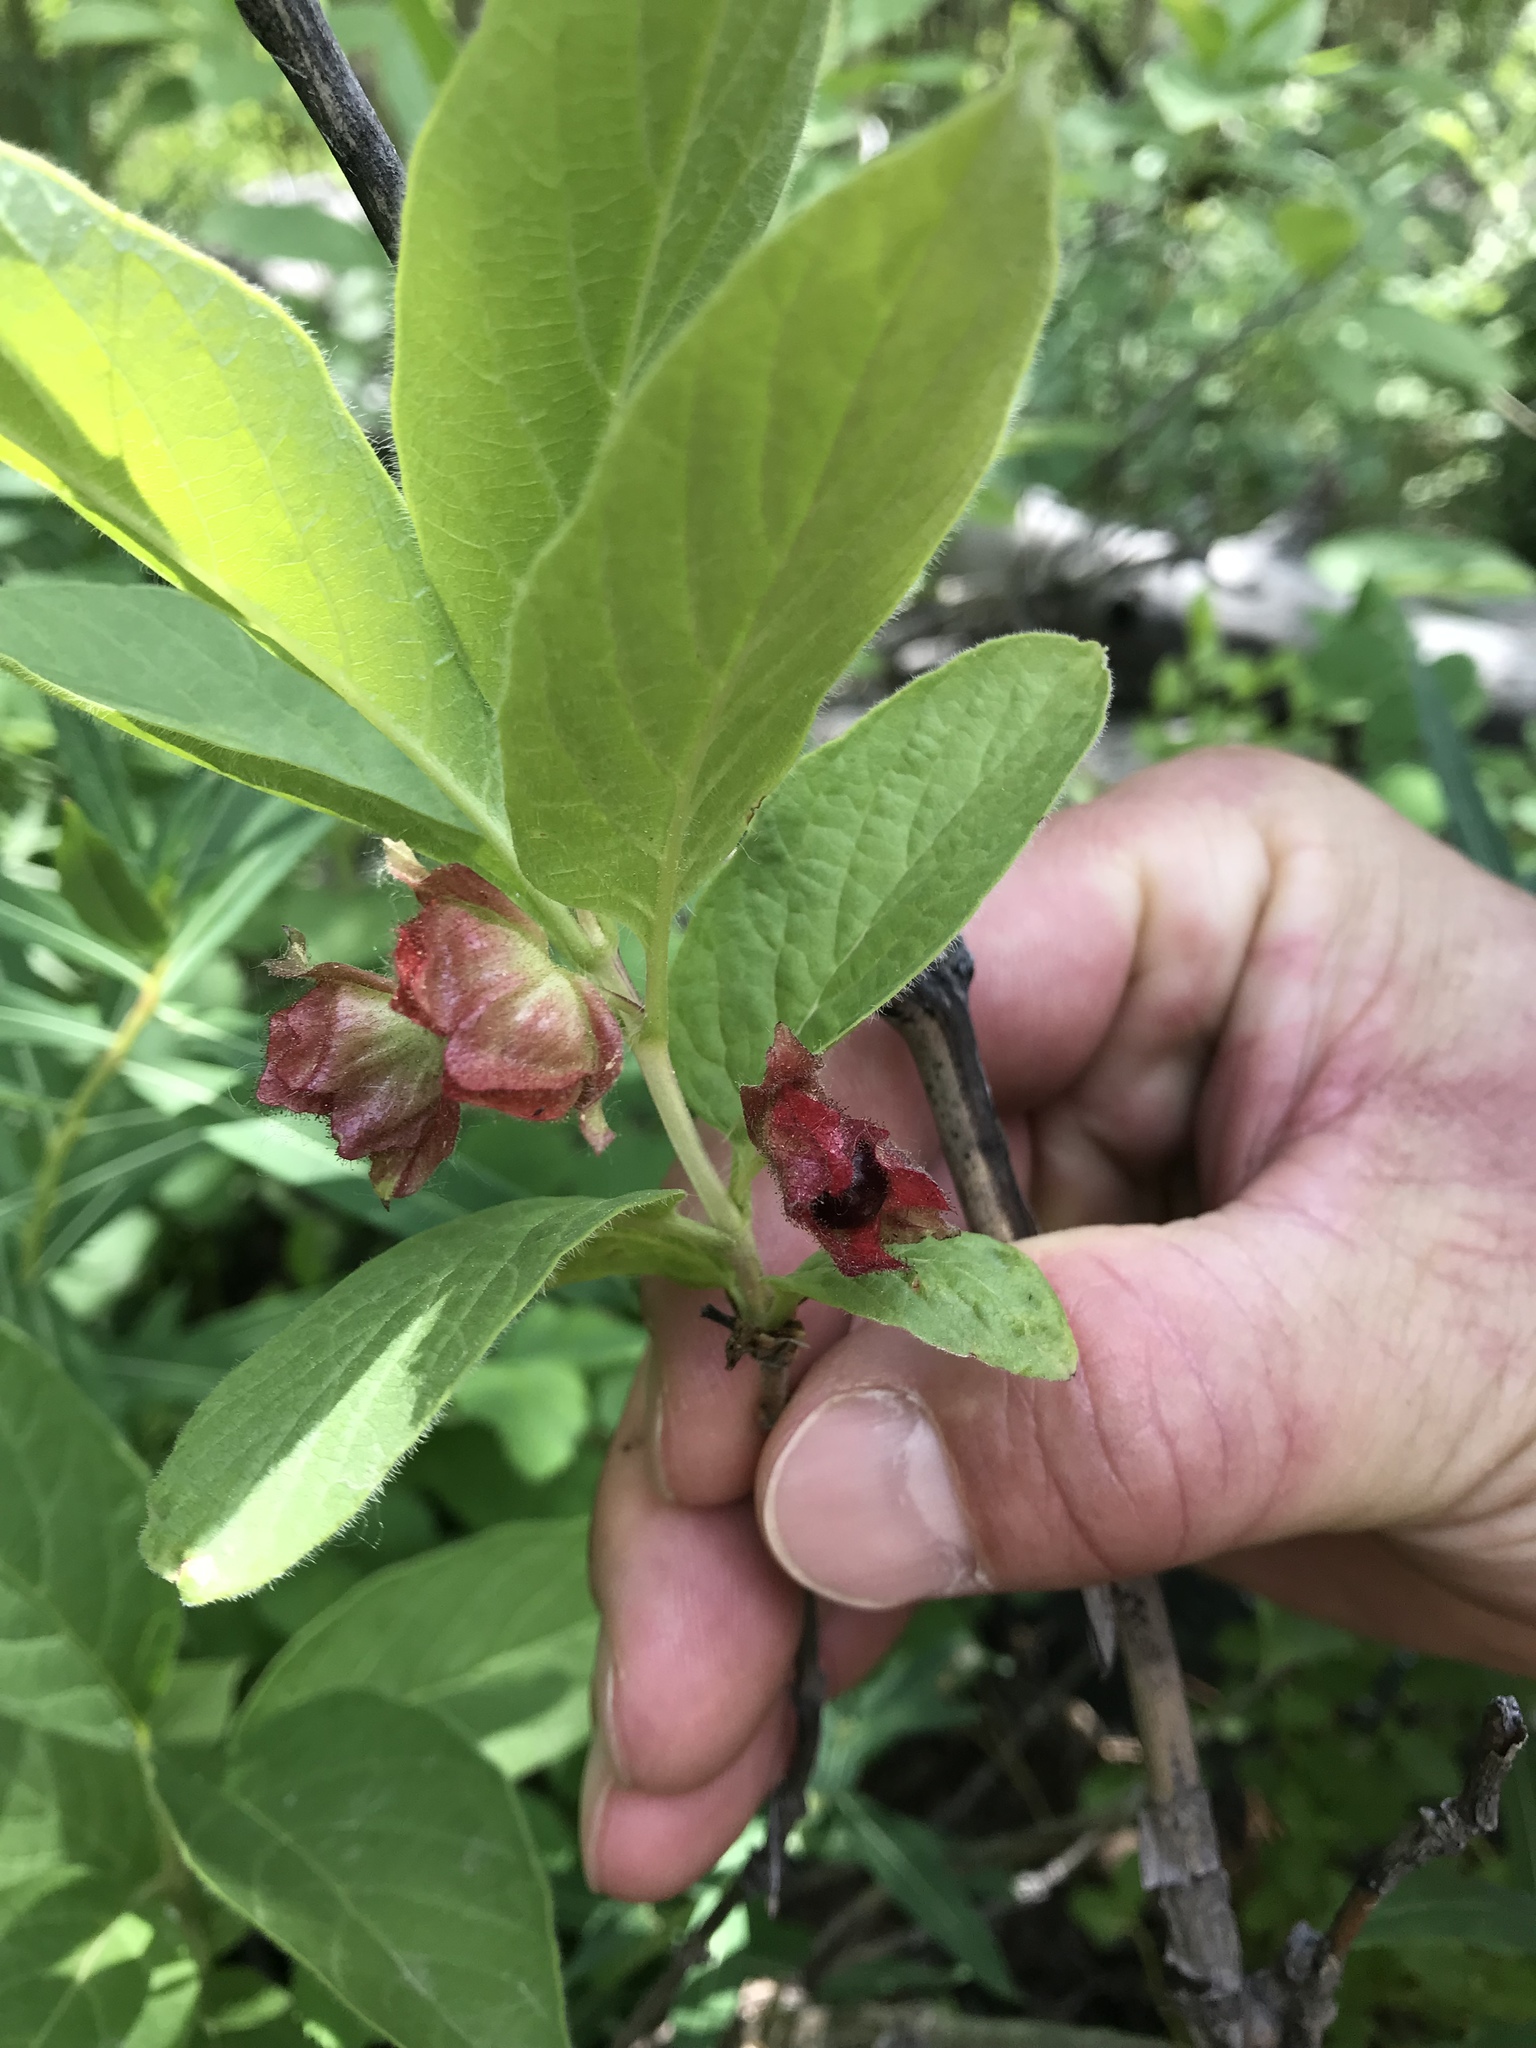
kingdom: Plantae
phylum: Tracheophyta
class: Magnoliopsida
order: Dipsacales
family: Caprifoliaceae
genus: Lonicera
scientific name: Lonicera involucrata
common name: Californian honeysuckle
